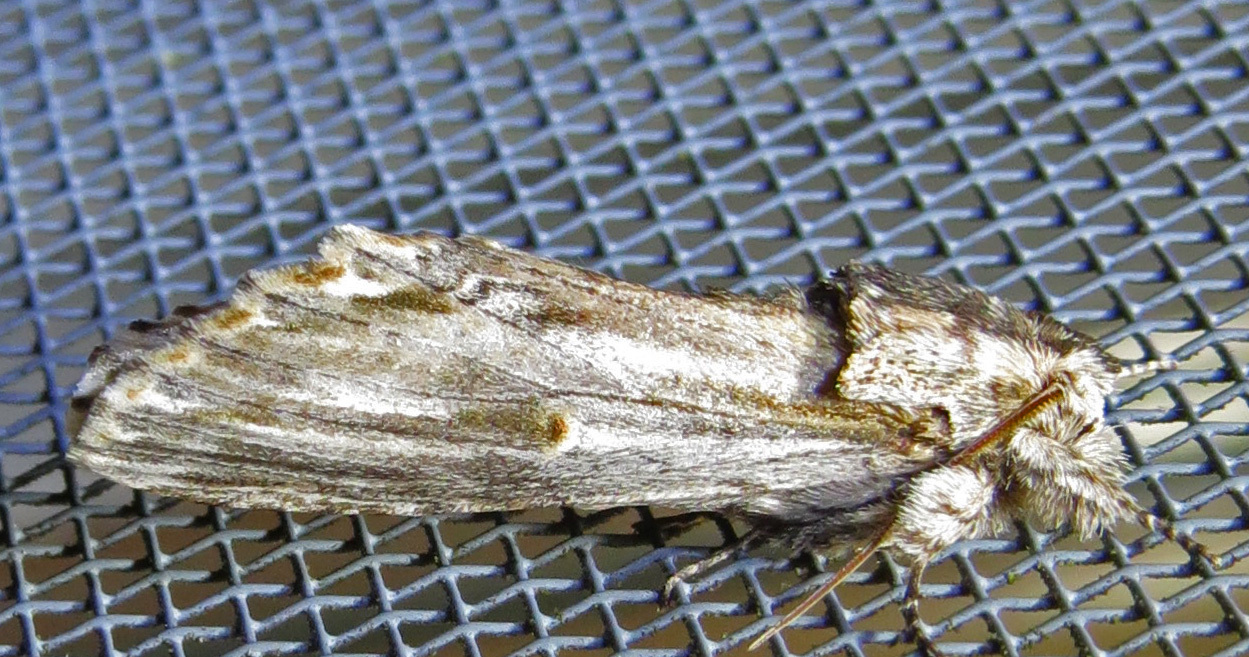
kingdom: Animalia
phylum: Arthropoda
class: Insecta
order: Lepidoptera
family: Notodontidae
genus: Oligocentria
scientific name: Oligocentria Ianassa lignicolor
